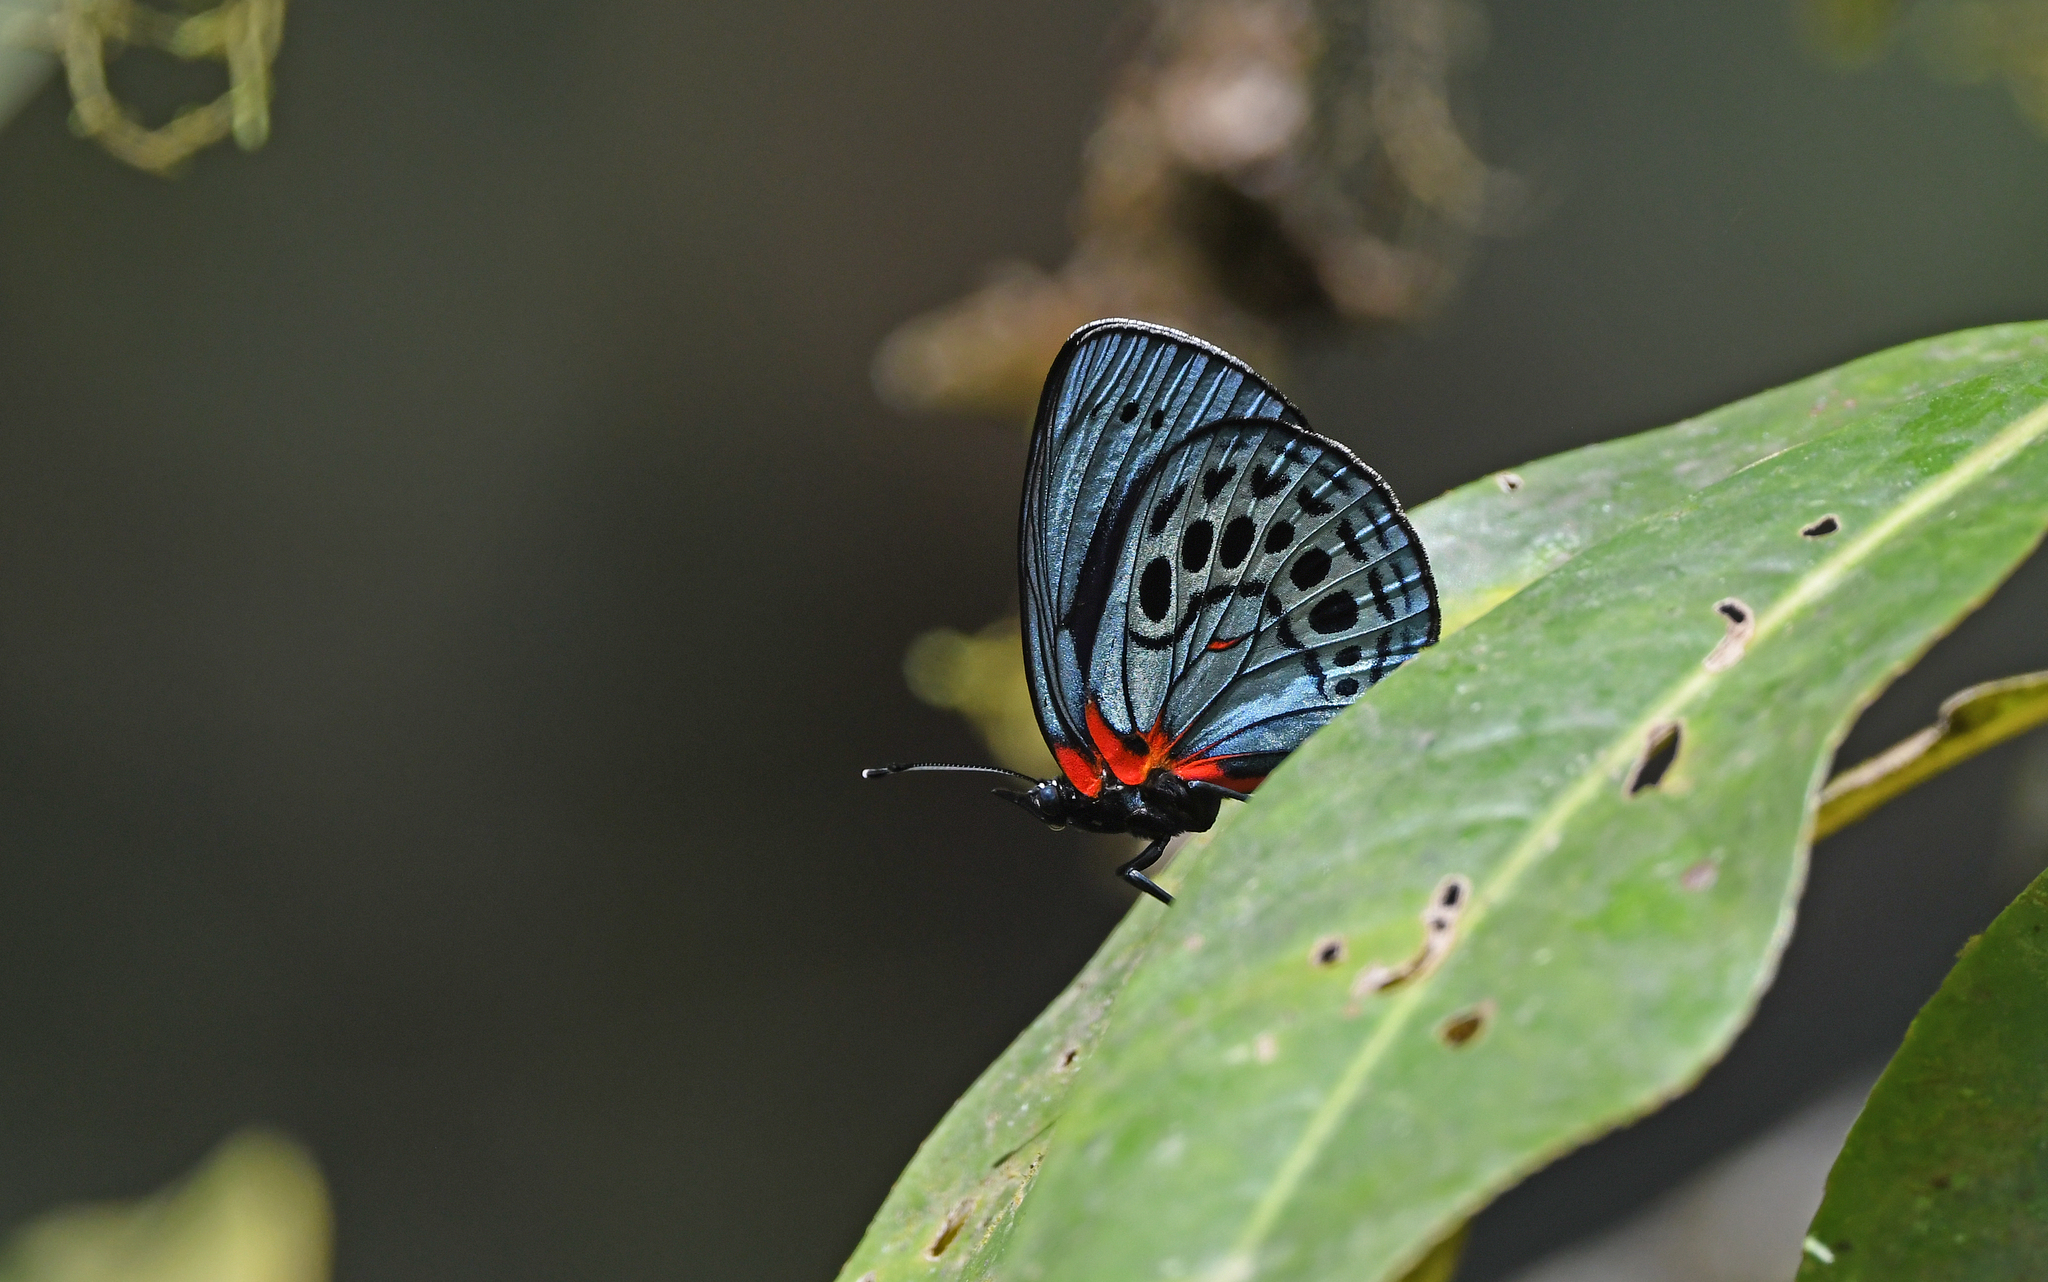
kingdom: Animalia
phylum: Arthropoda
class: Insecta
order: Lepidoptera
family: Nymphalidae
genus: Asterope
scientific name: Asterope leprieuri
